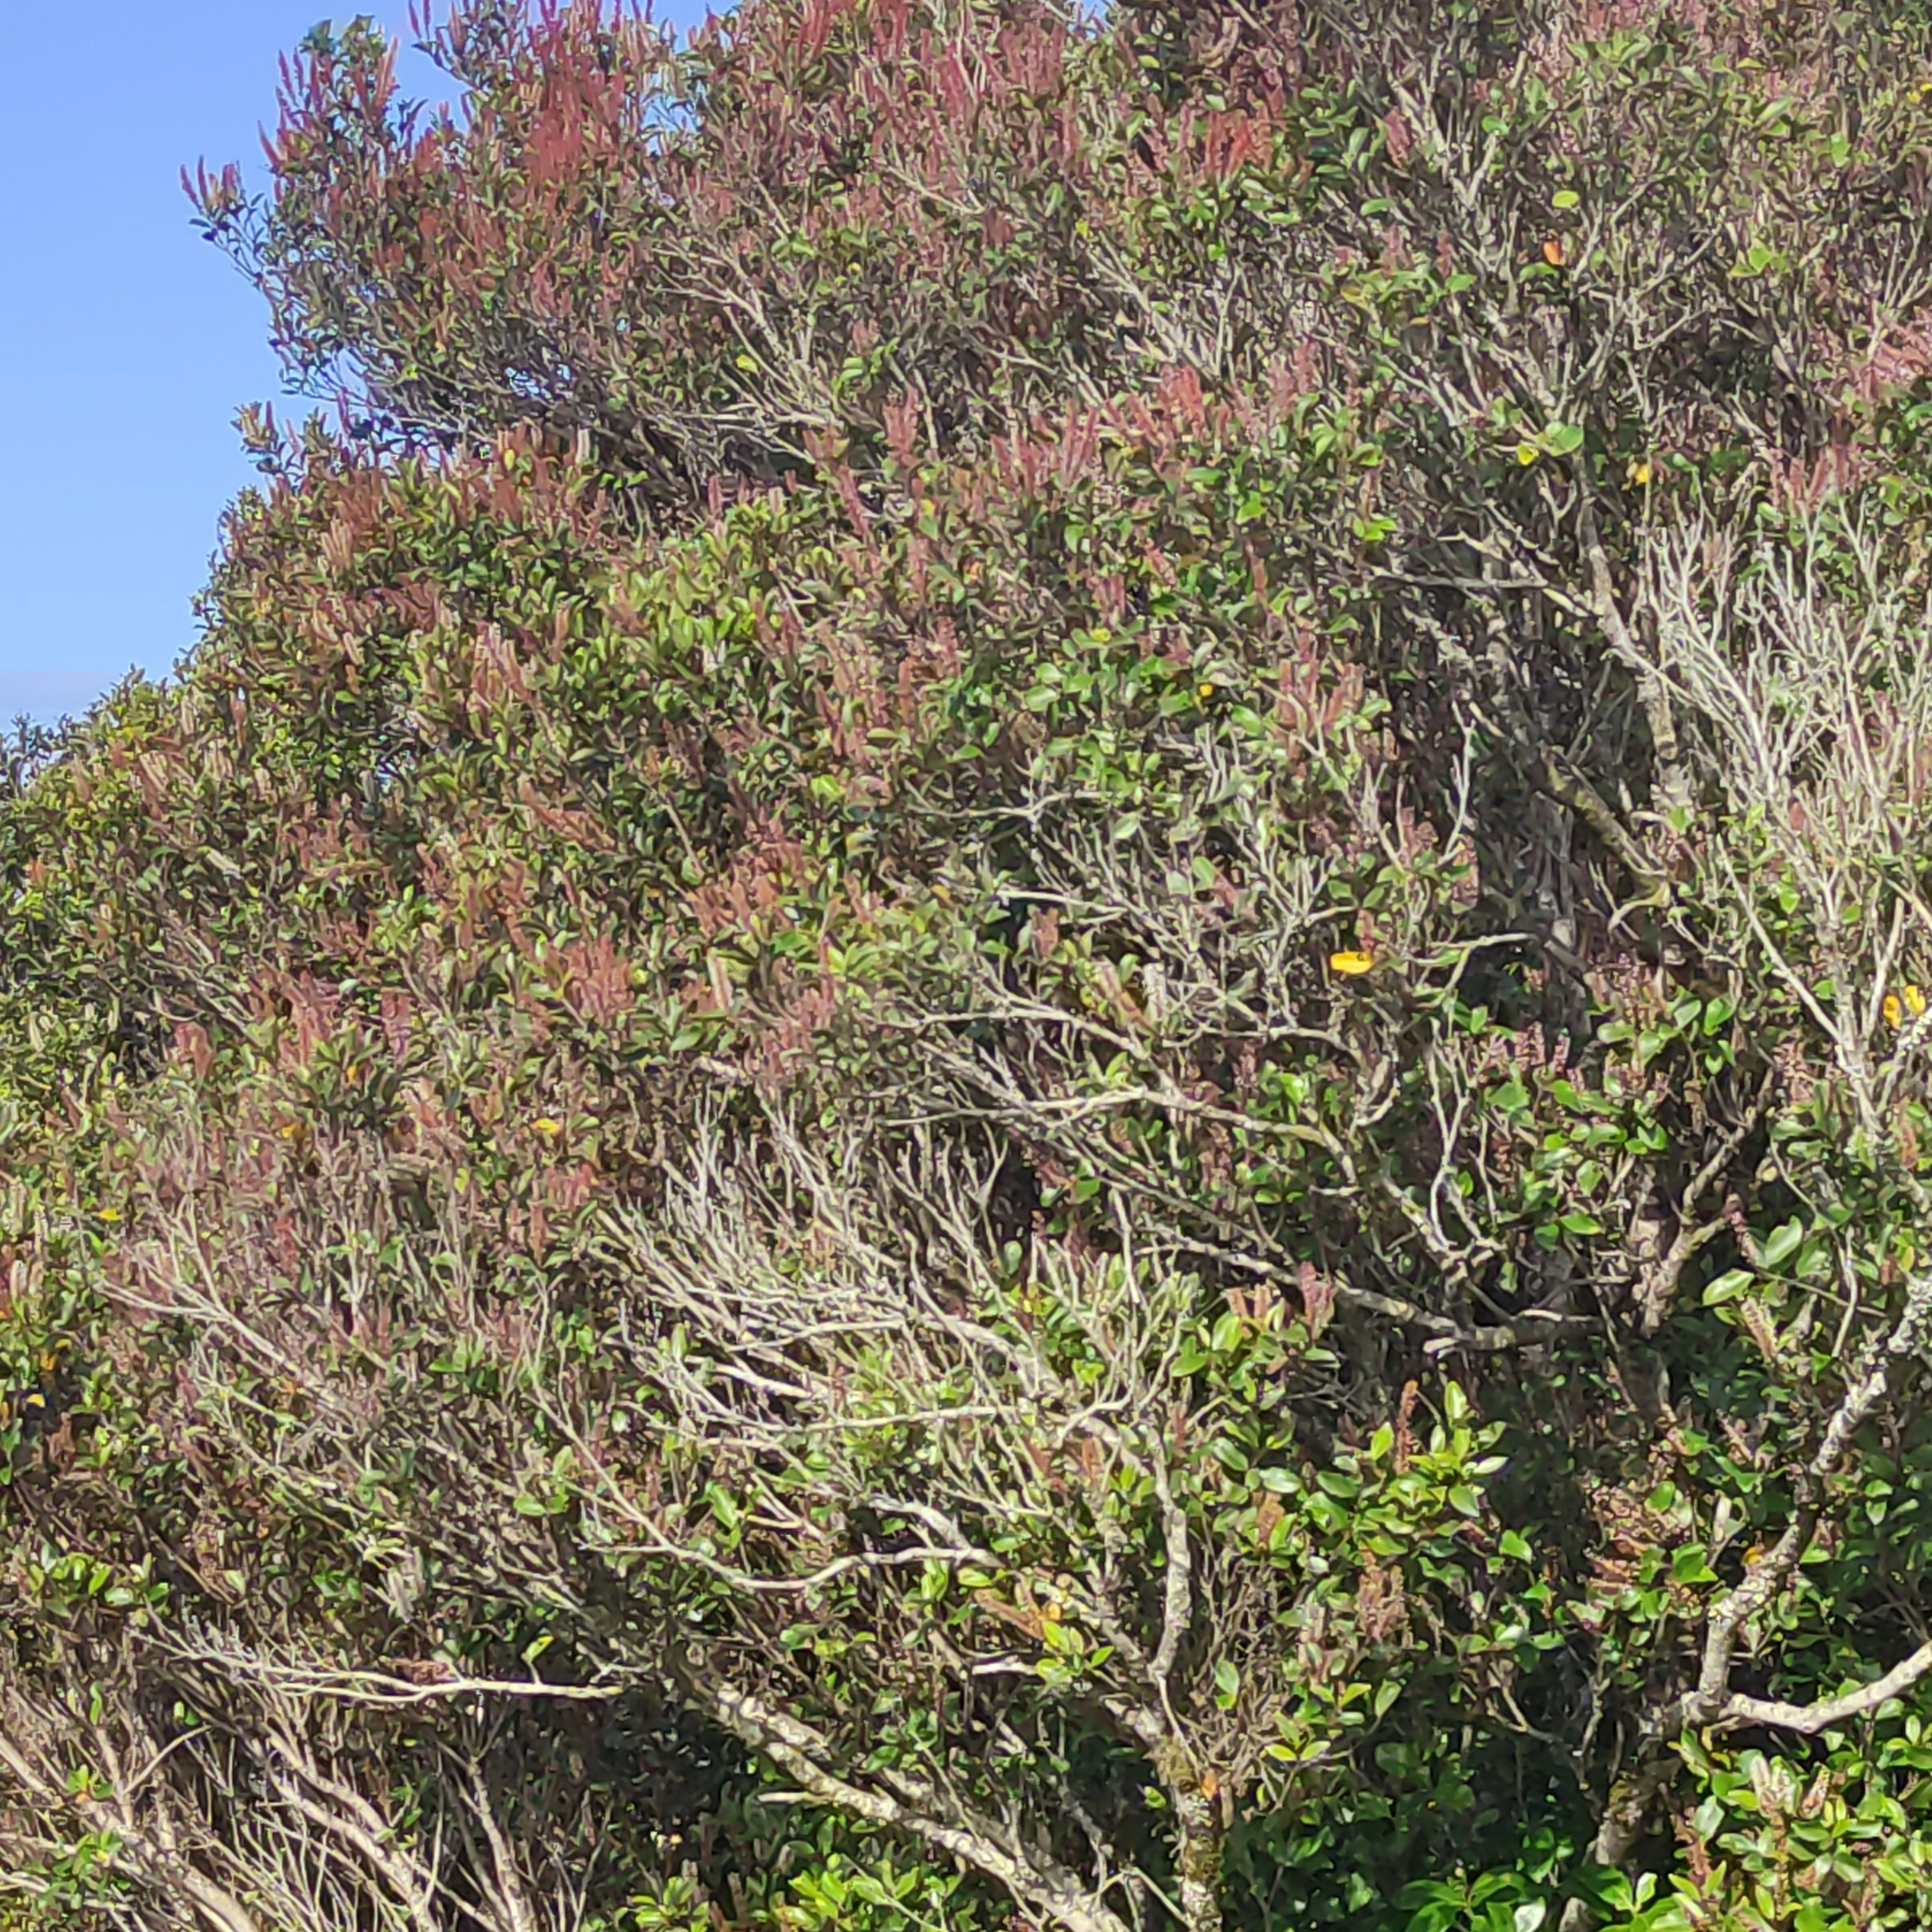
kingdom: Plantae
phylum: Tracheophyta
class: Magnoliopsida
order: Oxalidales
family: Cunoniaceae
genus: Pterophylla
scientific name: Pterophylla racemosa
